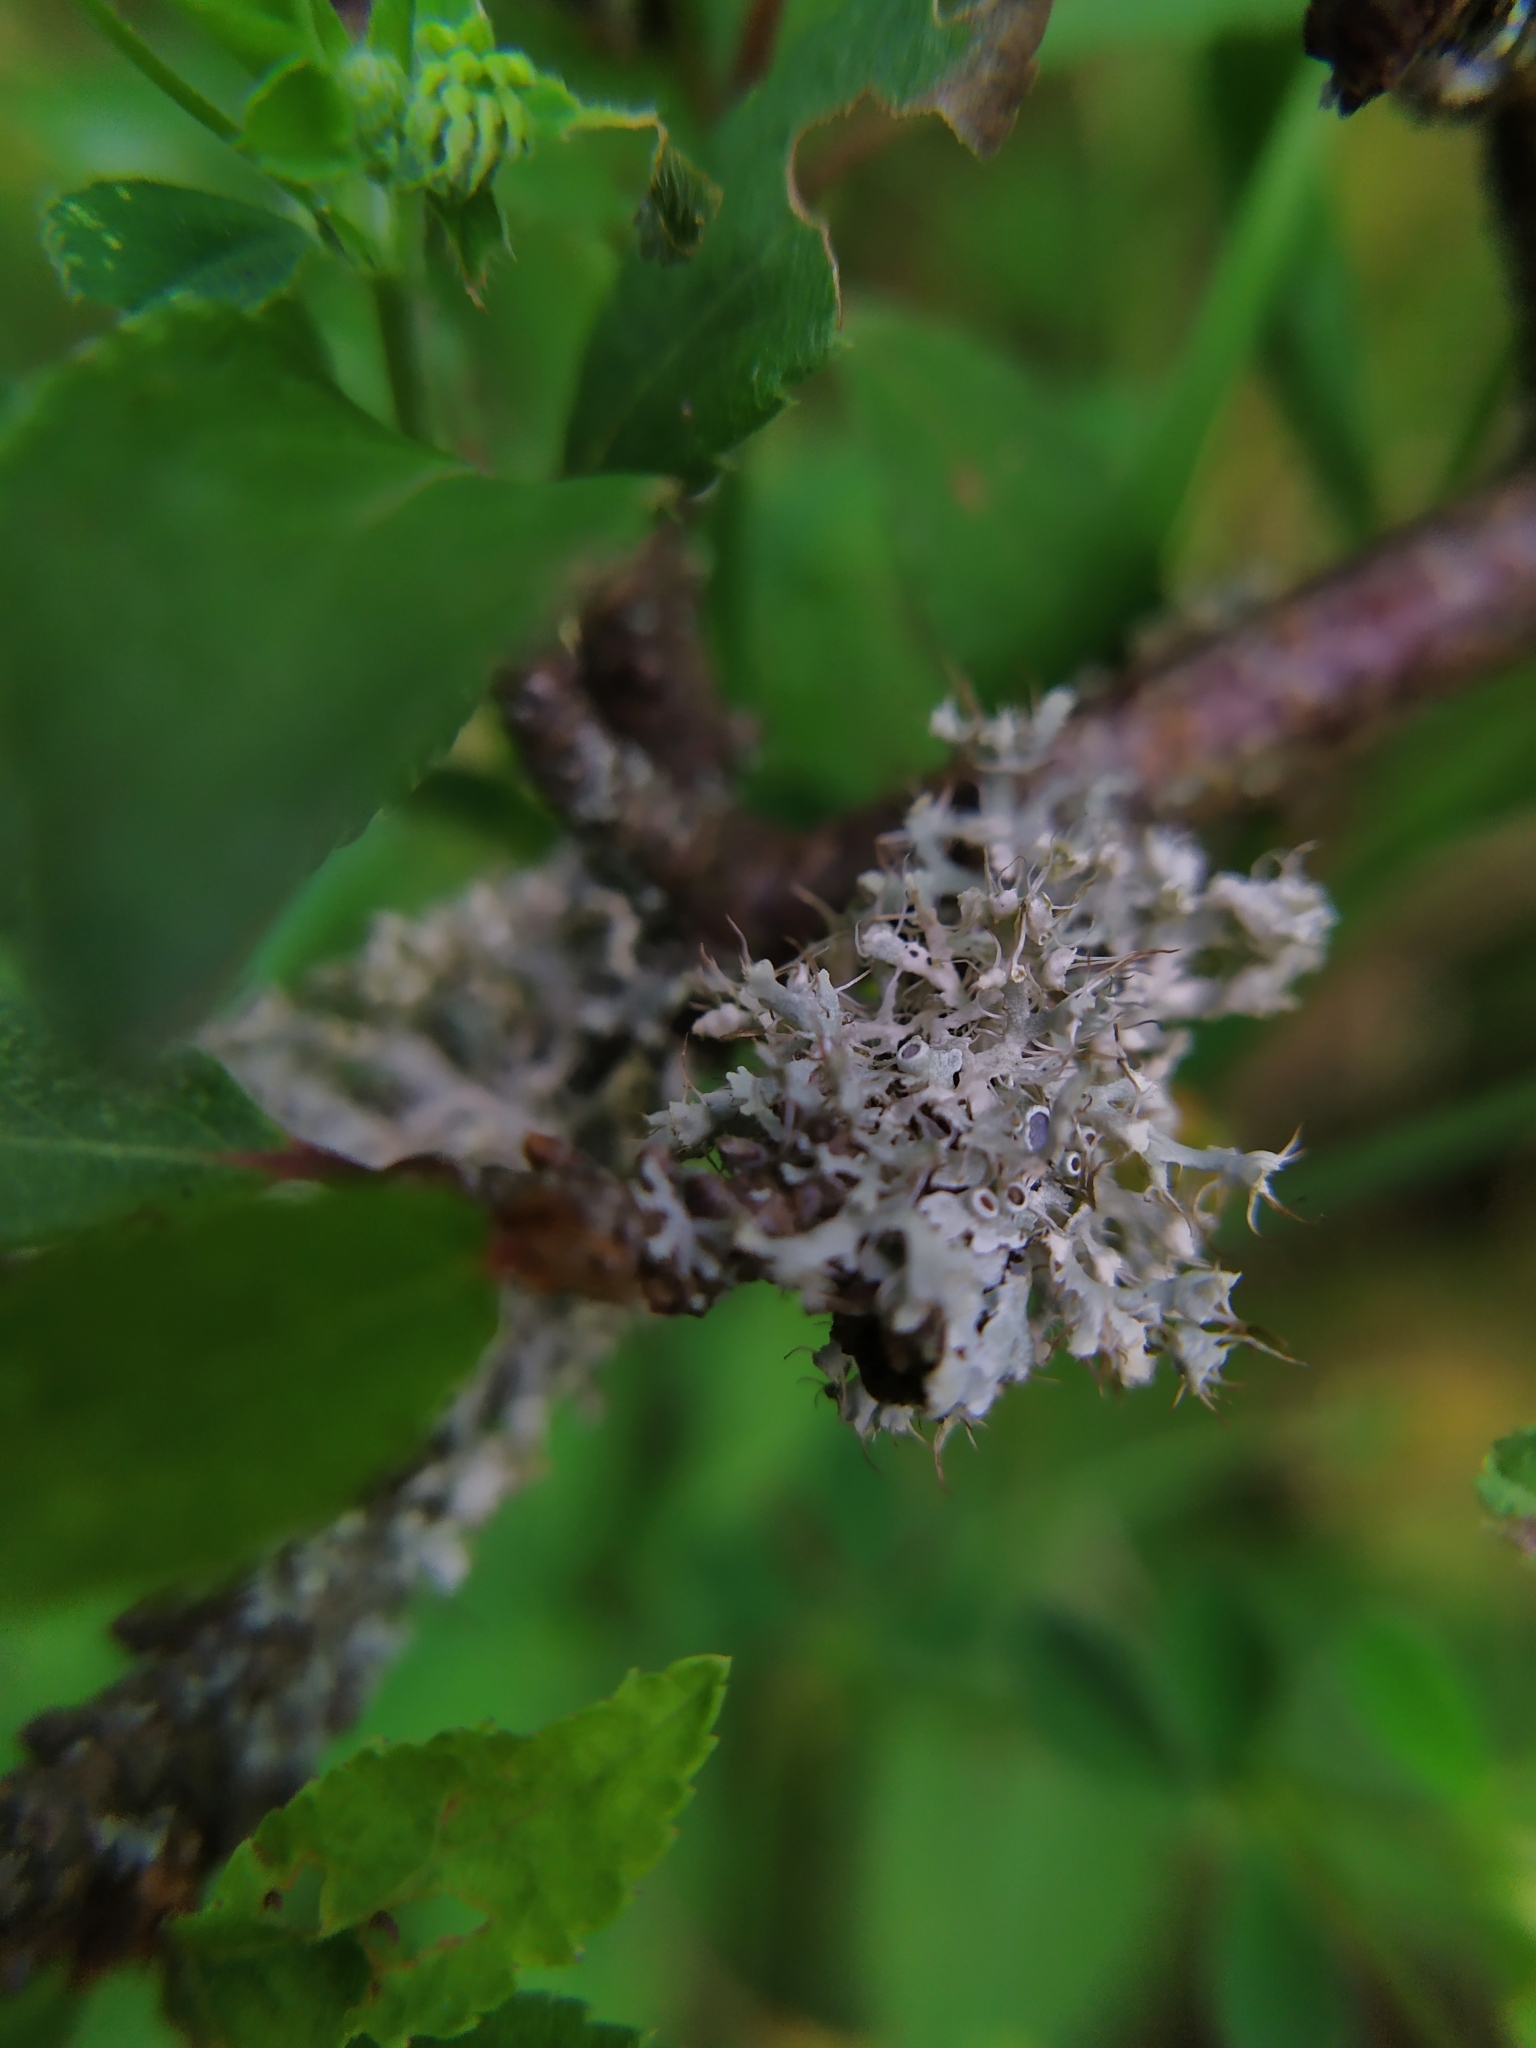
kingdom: Fungi
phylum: Ascomycota
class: Lecanoromycetes
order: Caliciales
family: Physciaceae
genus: Physcia
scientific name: Physcia adscendens
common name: Hooded rosette lichen
